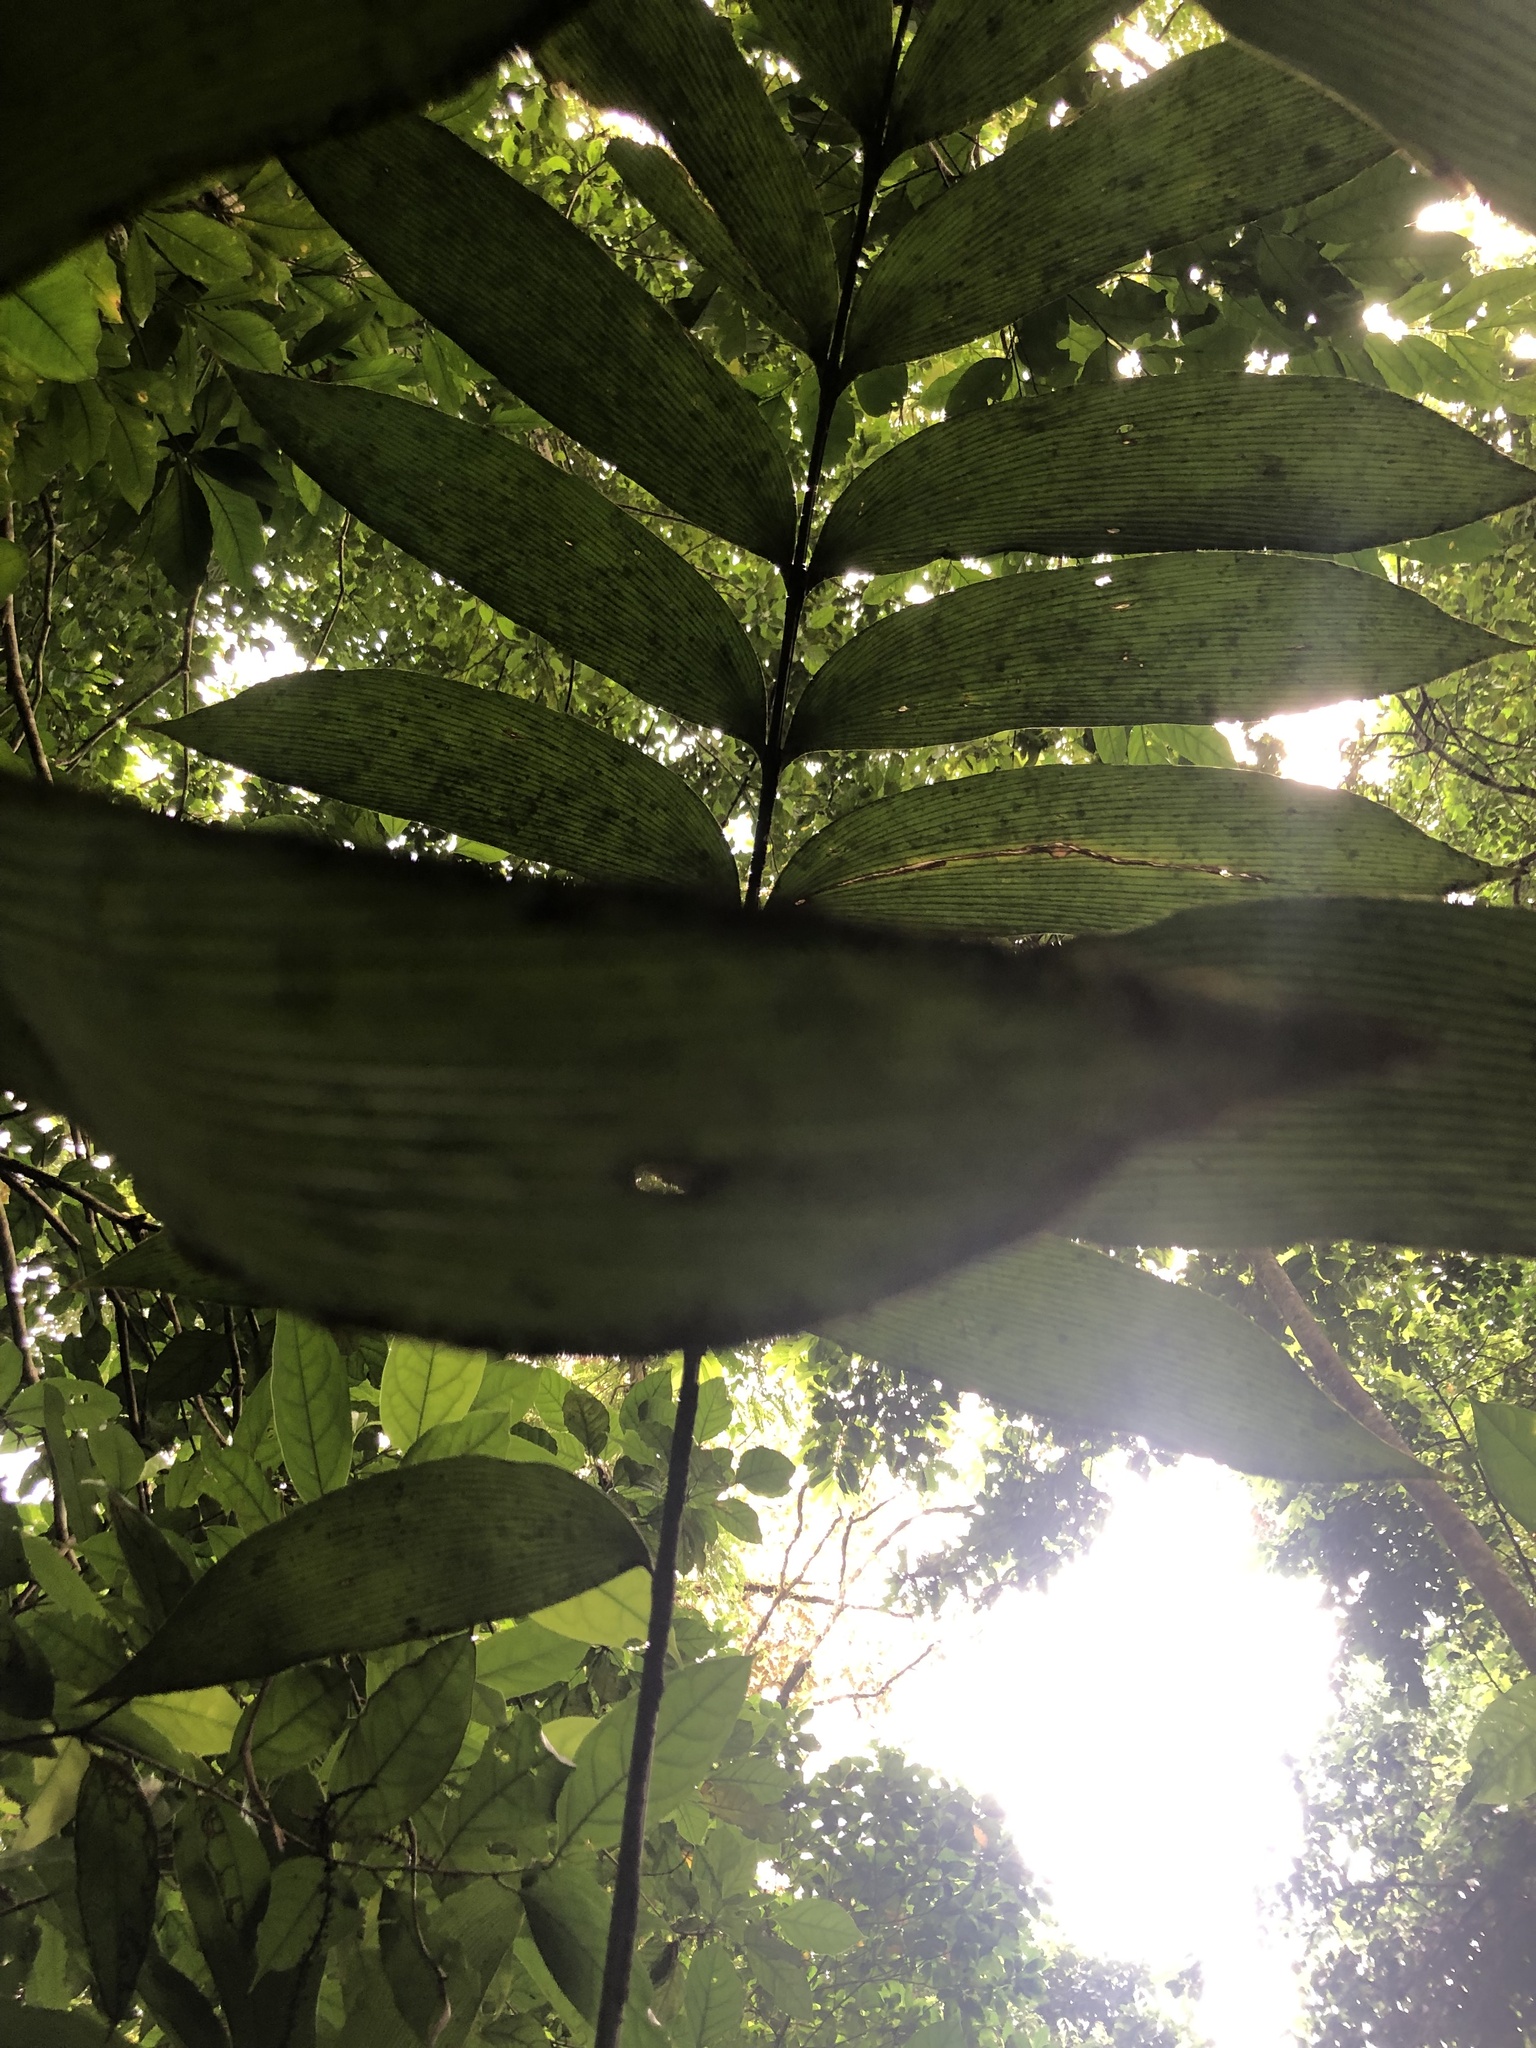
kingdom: Plantae
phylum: Tracheophyta
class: Cycadopsida
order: Cycadales
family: Zamiaceae
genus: Zamia
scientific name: Zamia nesophila
